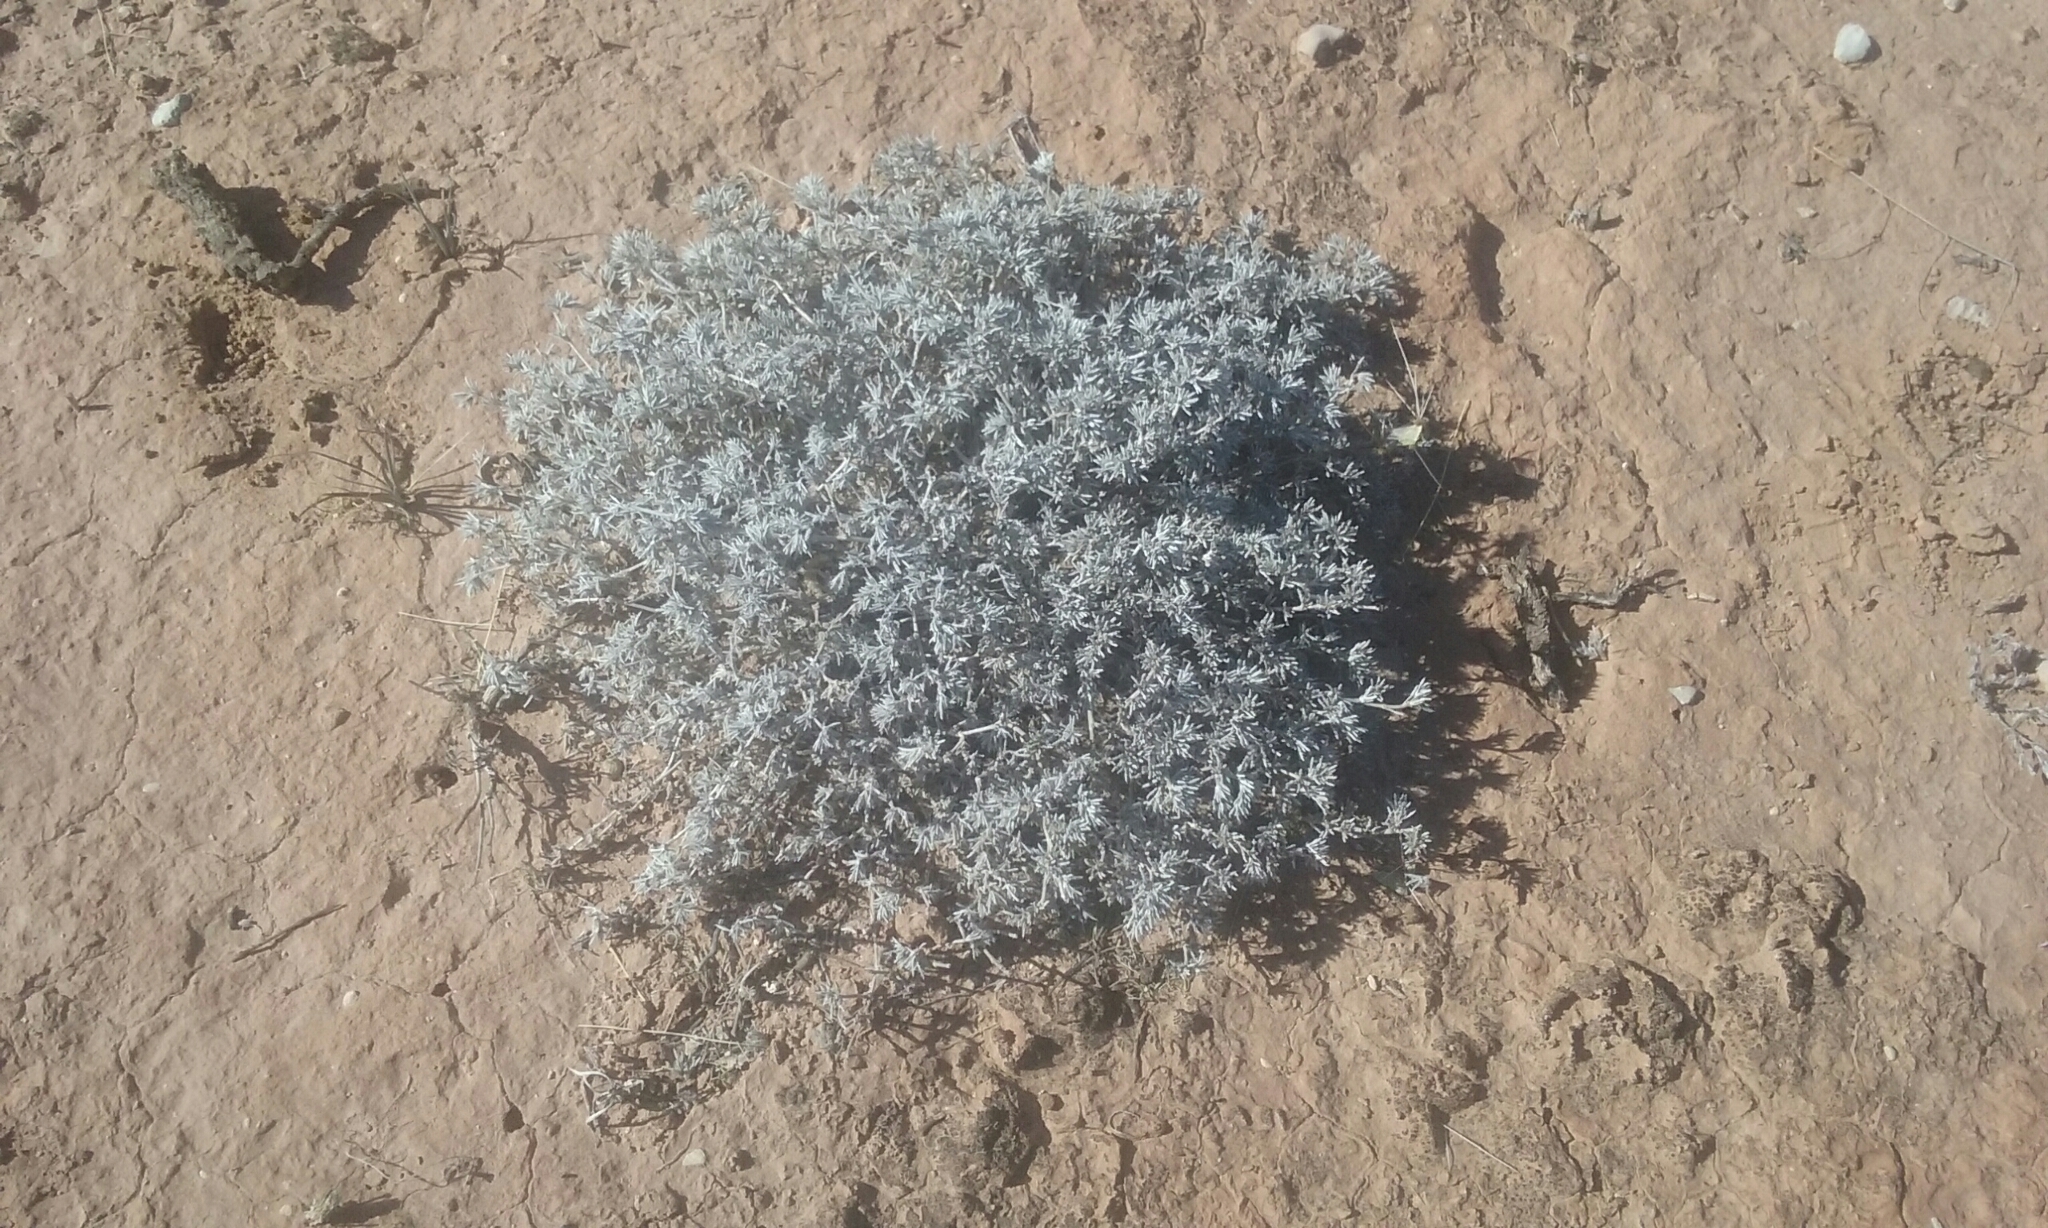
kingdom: Plantae
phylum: Tracheophyta
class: Magnoliopsida
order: Boraginales
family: Ehretiaceae
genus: Tiquilia
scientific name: Tiquilia hispidissima
